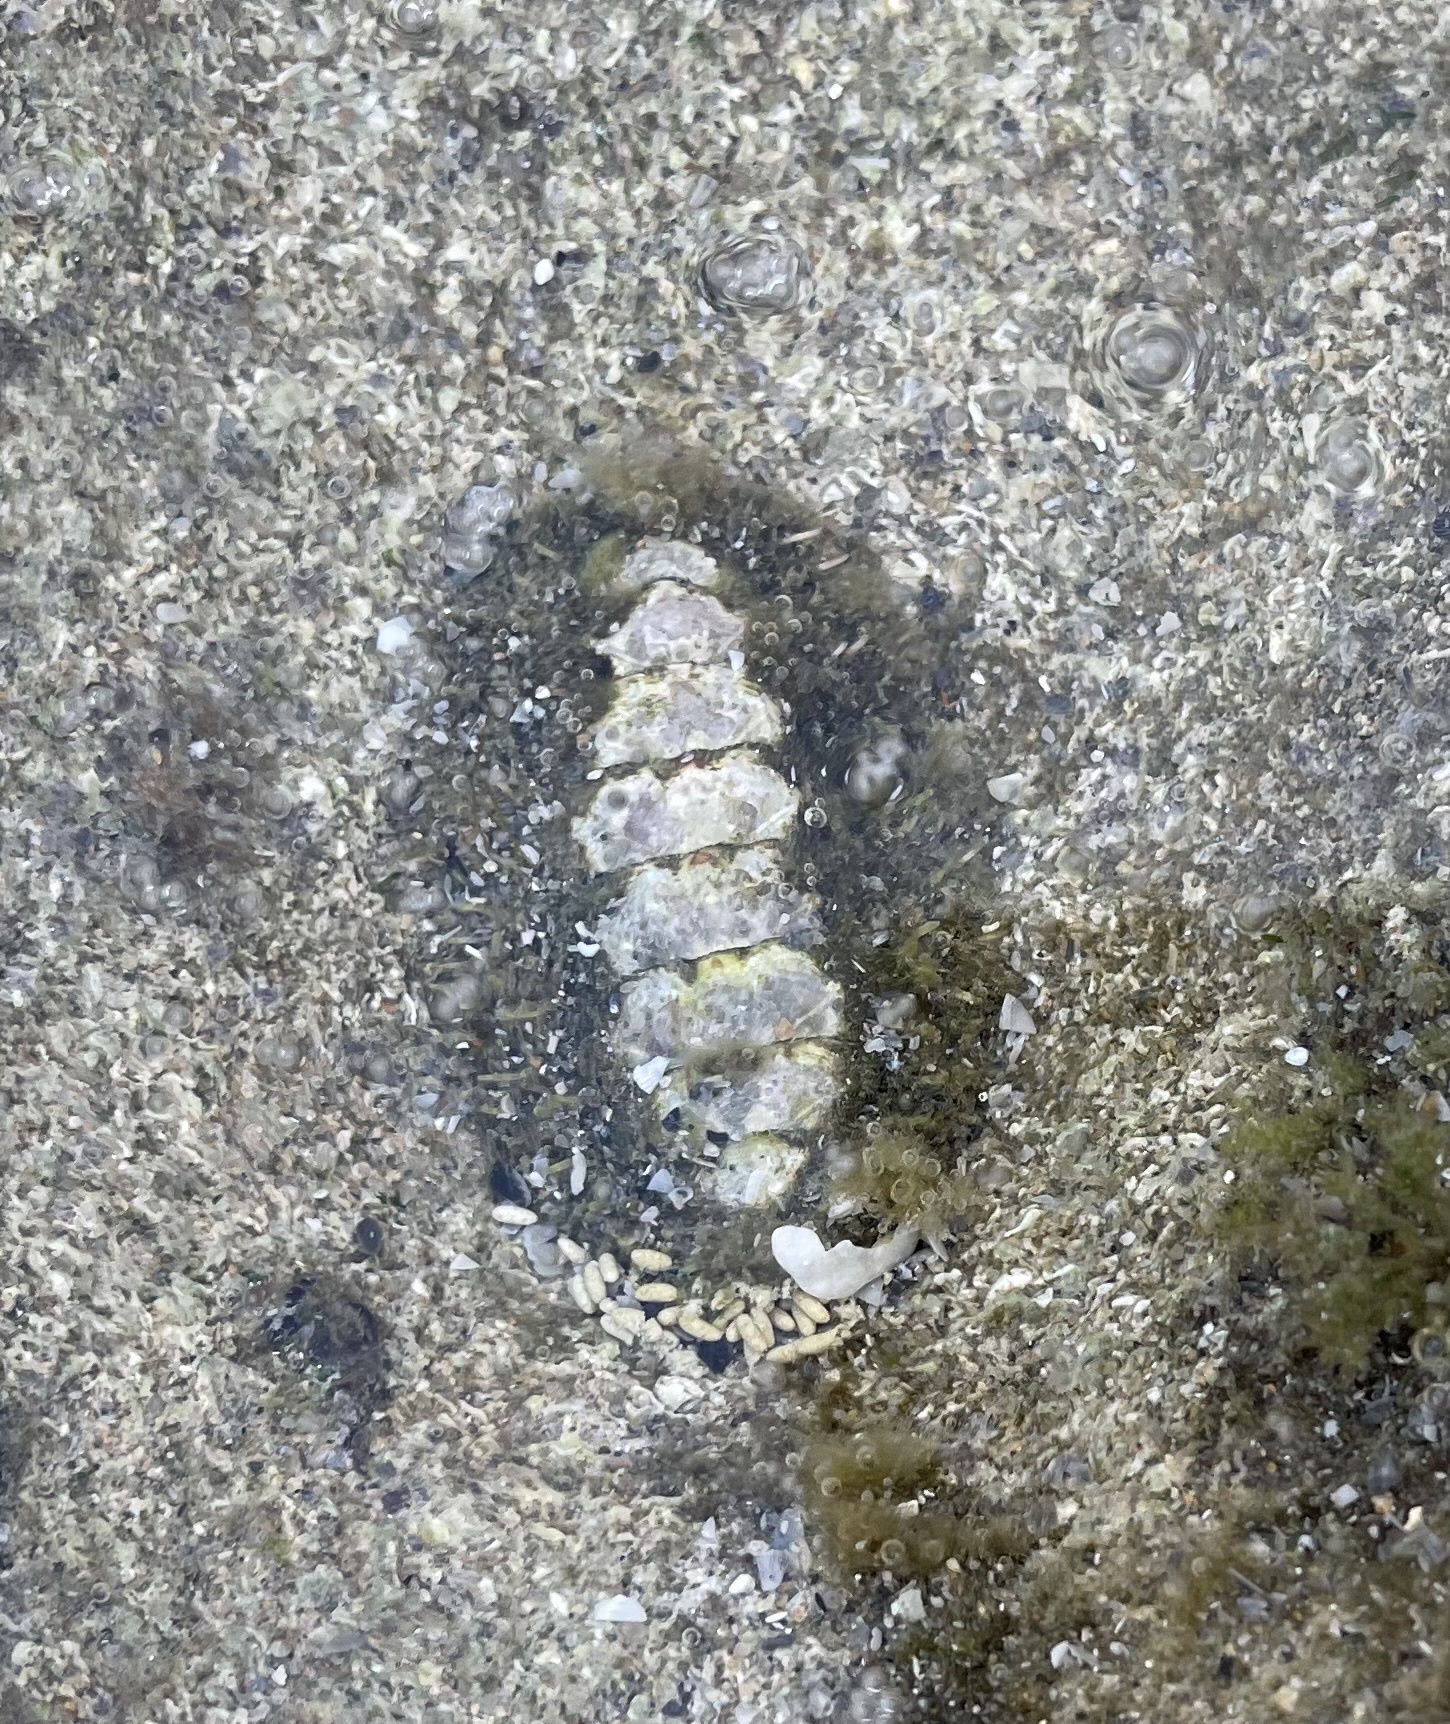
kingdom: Animalia
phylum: Mollusca
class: Polyplacophora
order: Chitonida
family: Tonicellidae
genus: Ceratozona
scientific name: Ceratozona squalida
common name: Rough-girdled chiton
